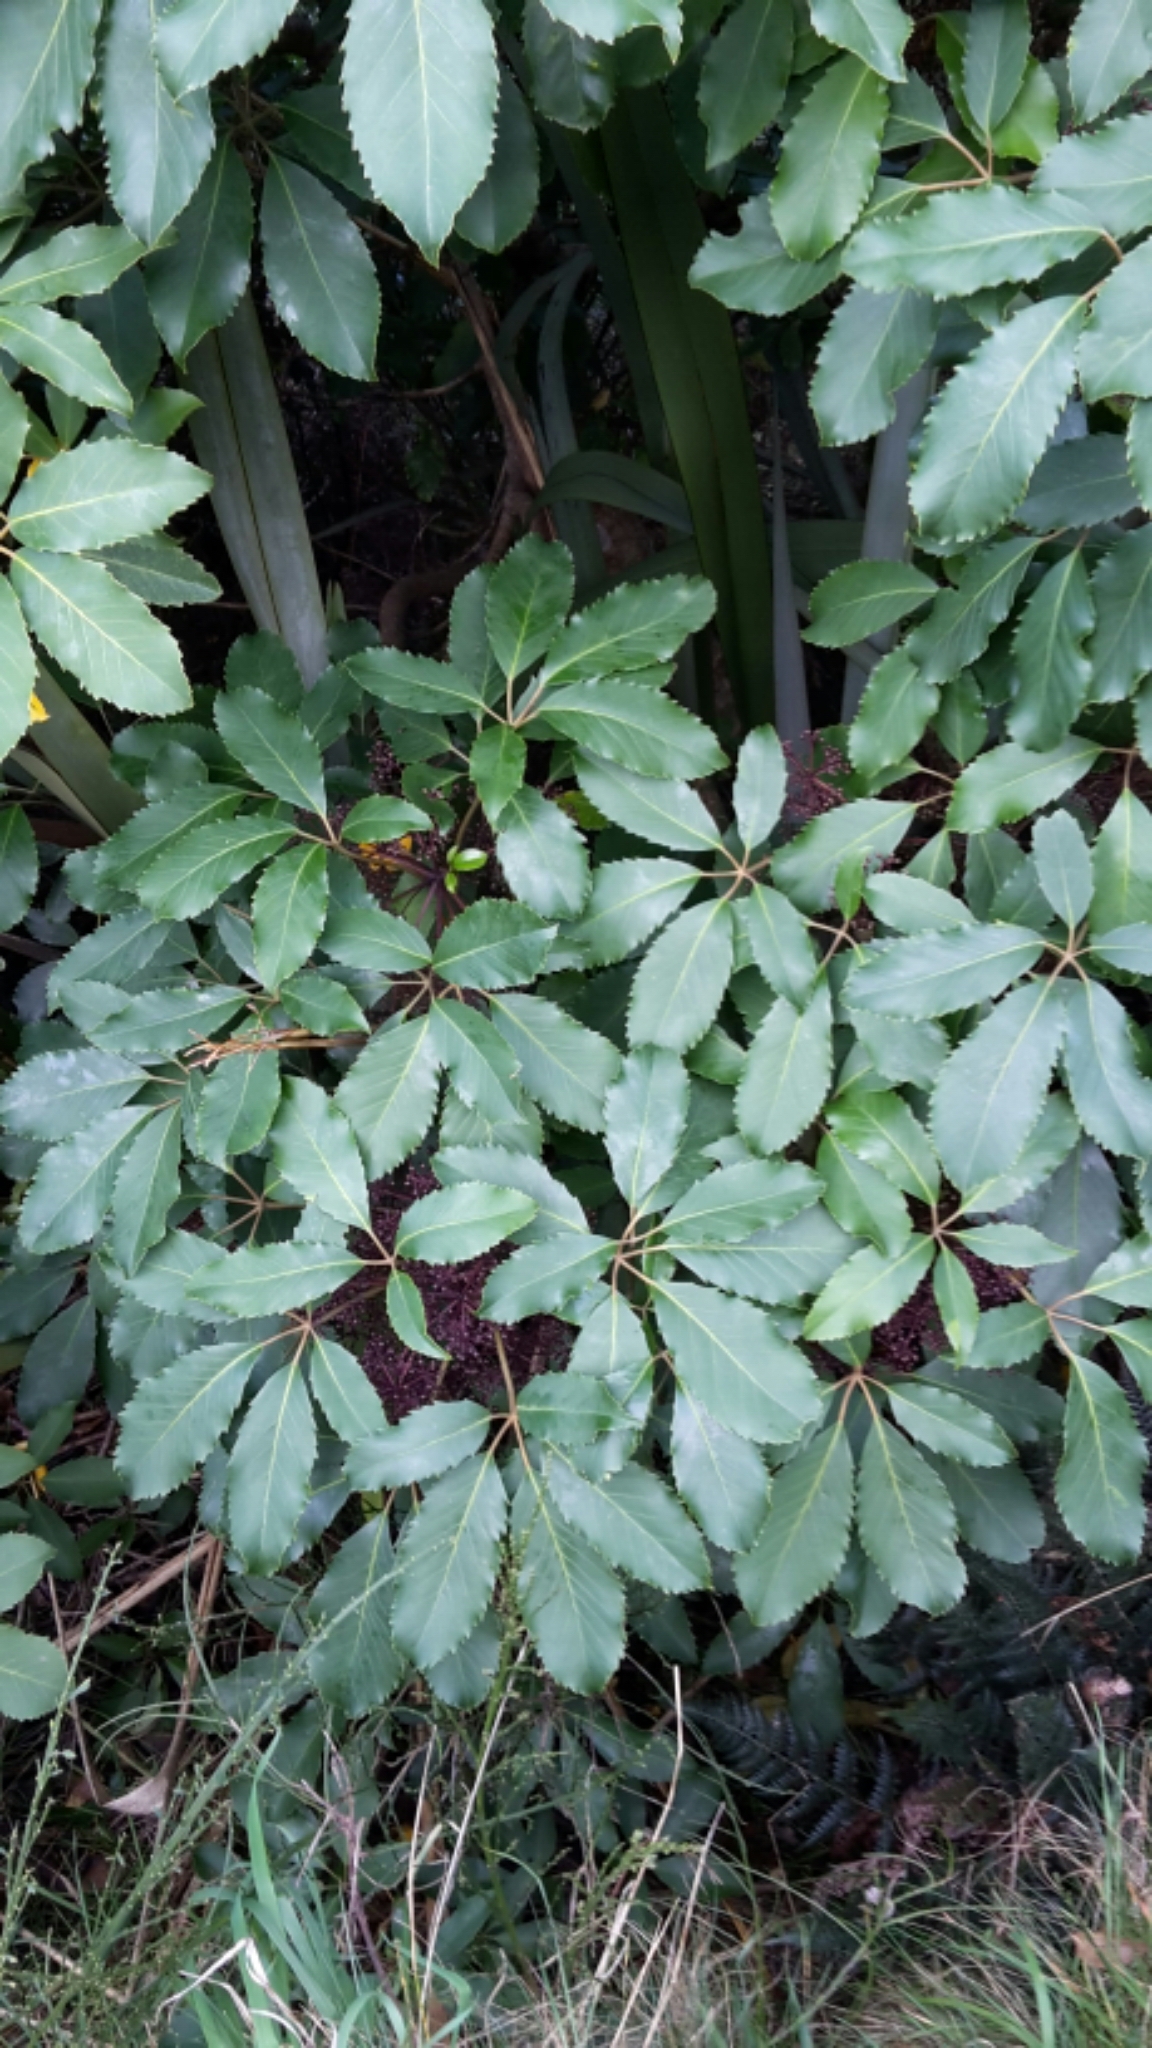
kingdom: Plantae
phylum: Tracheophyta
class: Magnoliopsida
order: Apiales
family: Araliaceae
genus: Neopanax
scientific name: Neopanax arboreus
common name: Five-fingers
